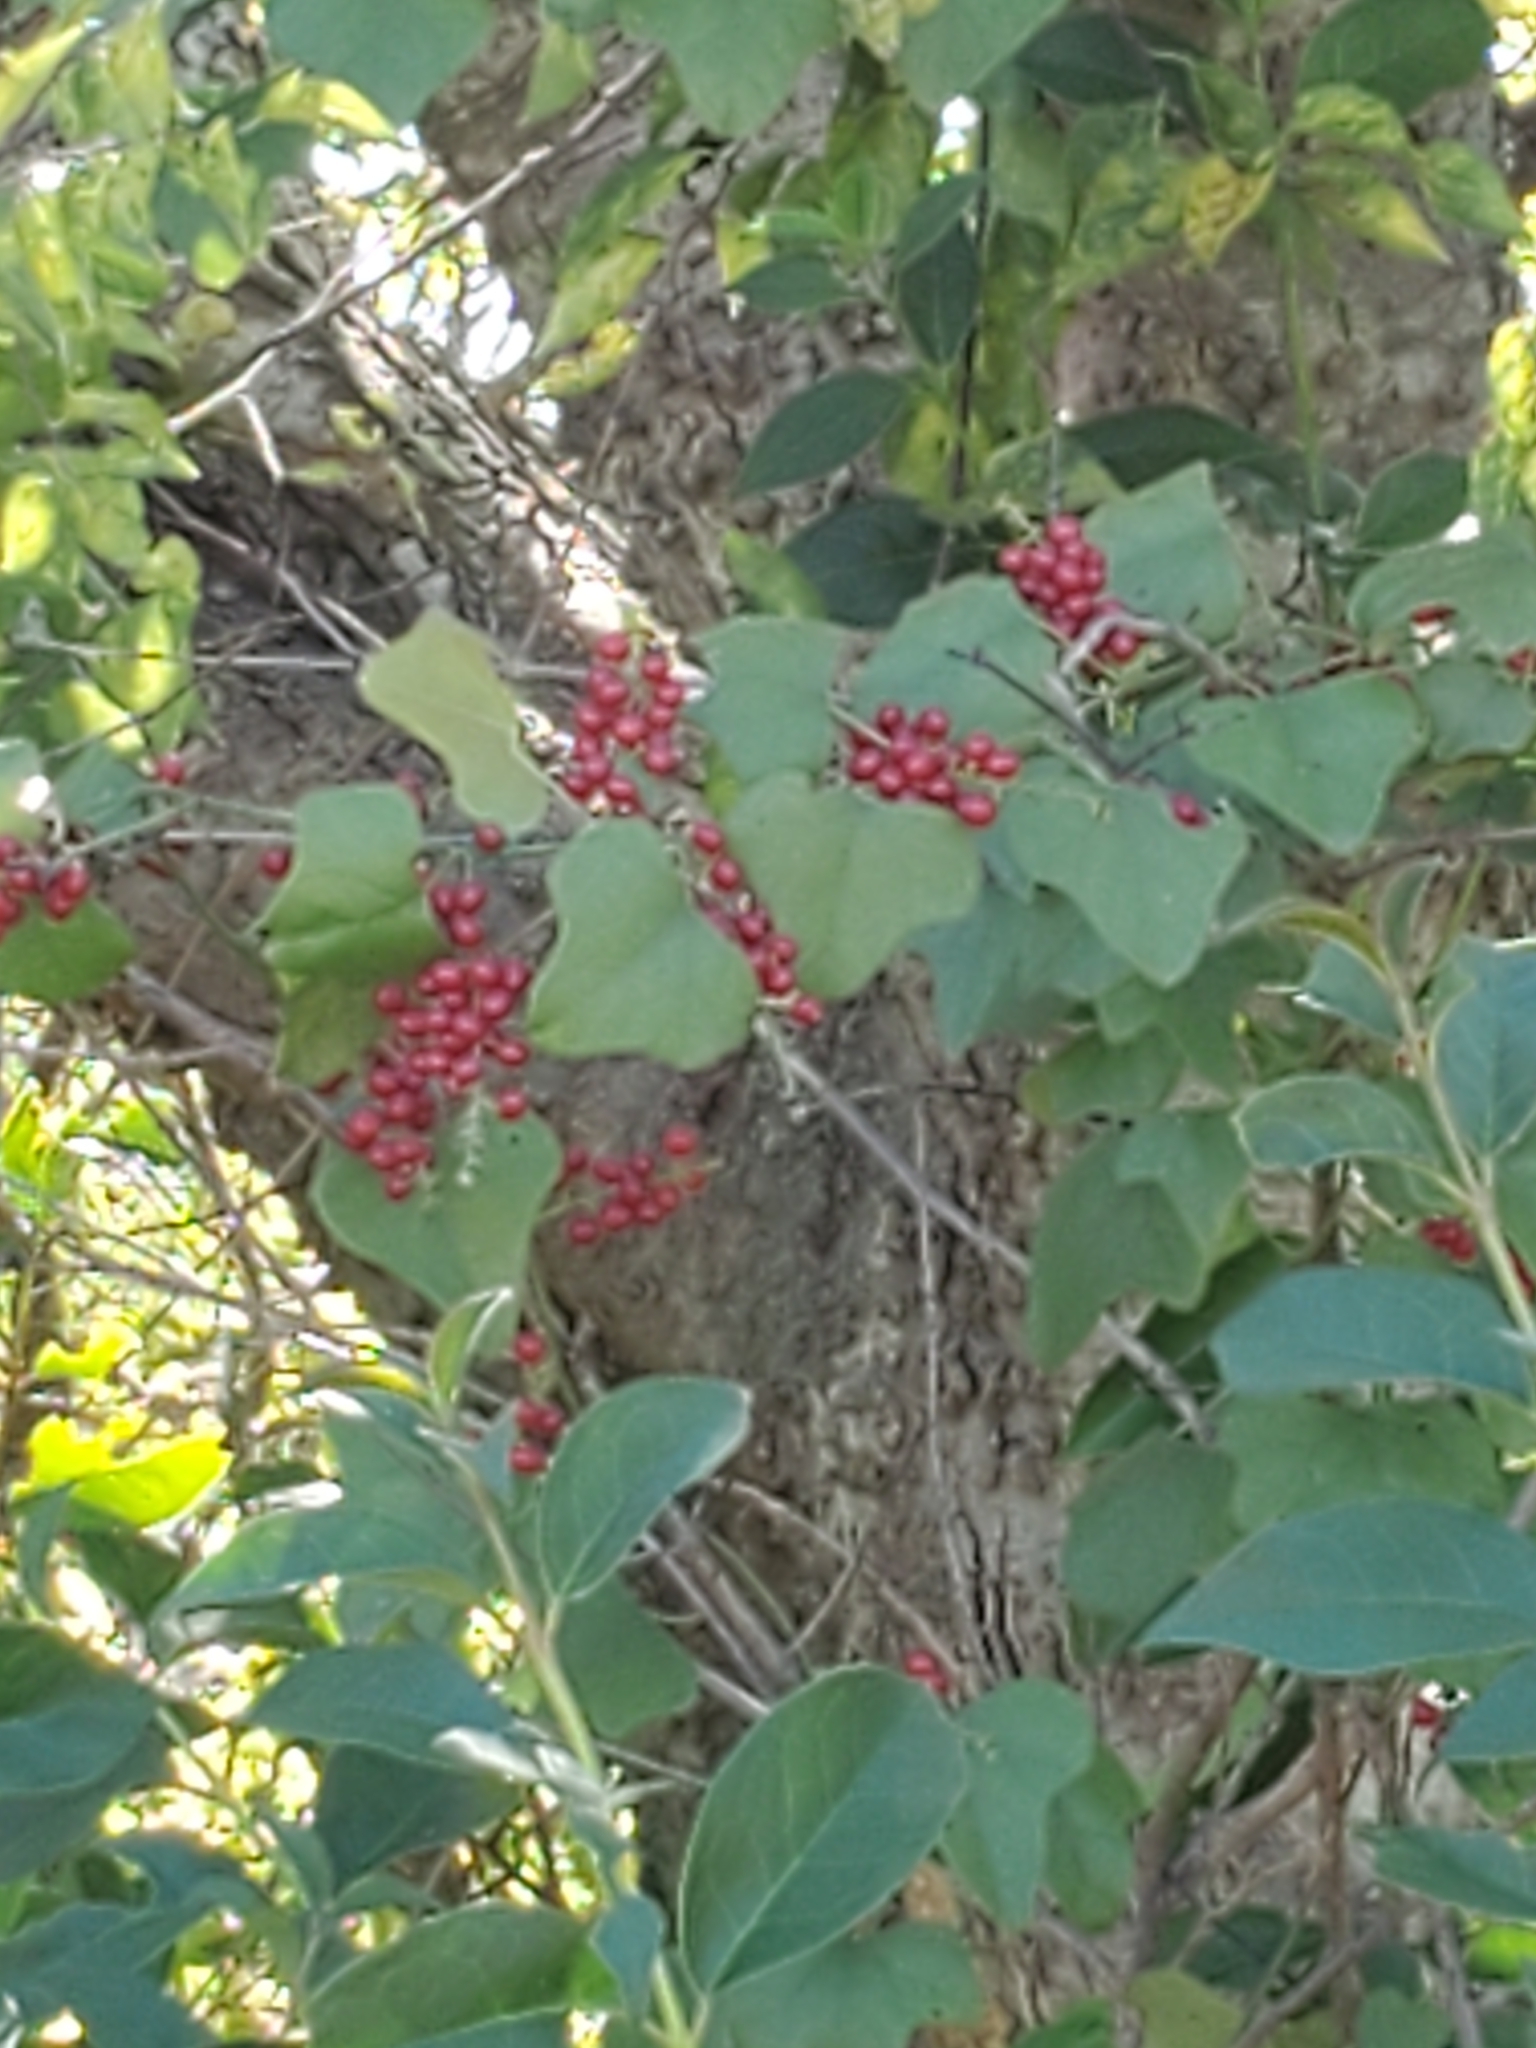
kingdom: Plantae
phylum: Tracheophyta
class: Magnoliopsida
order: Ranunculales
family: Menispermaceae
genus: Cocculus
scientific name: Cocculus carolinus
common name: Carolina moonseed
